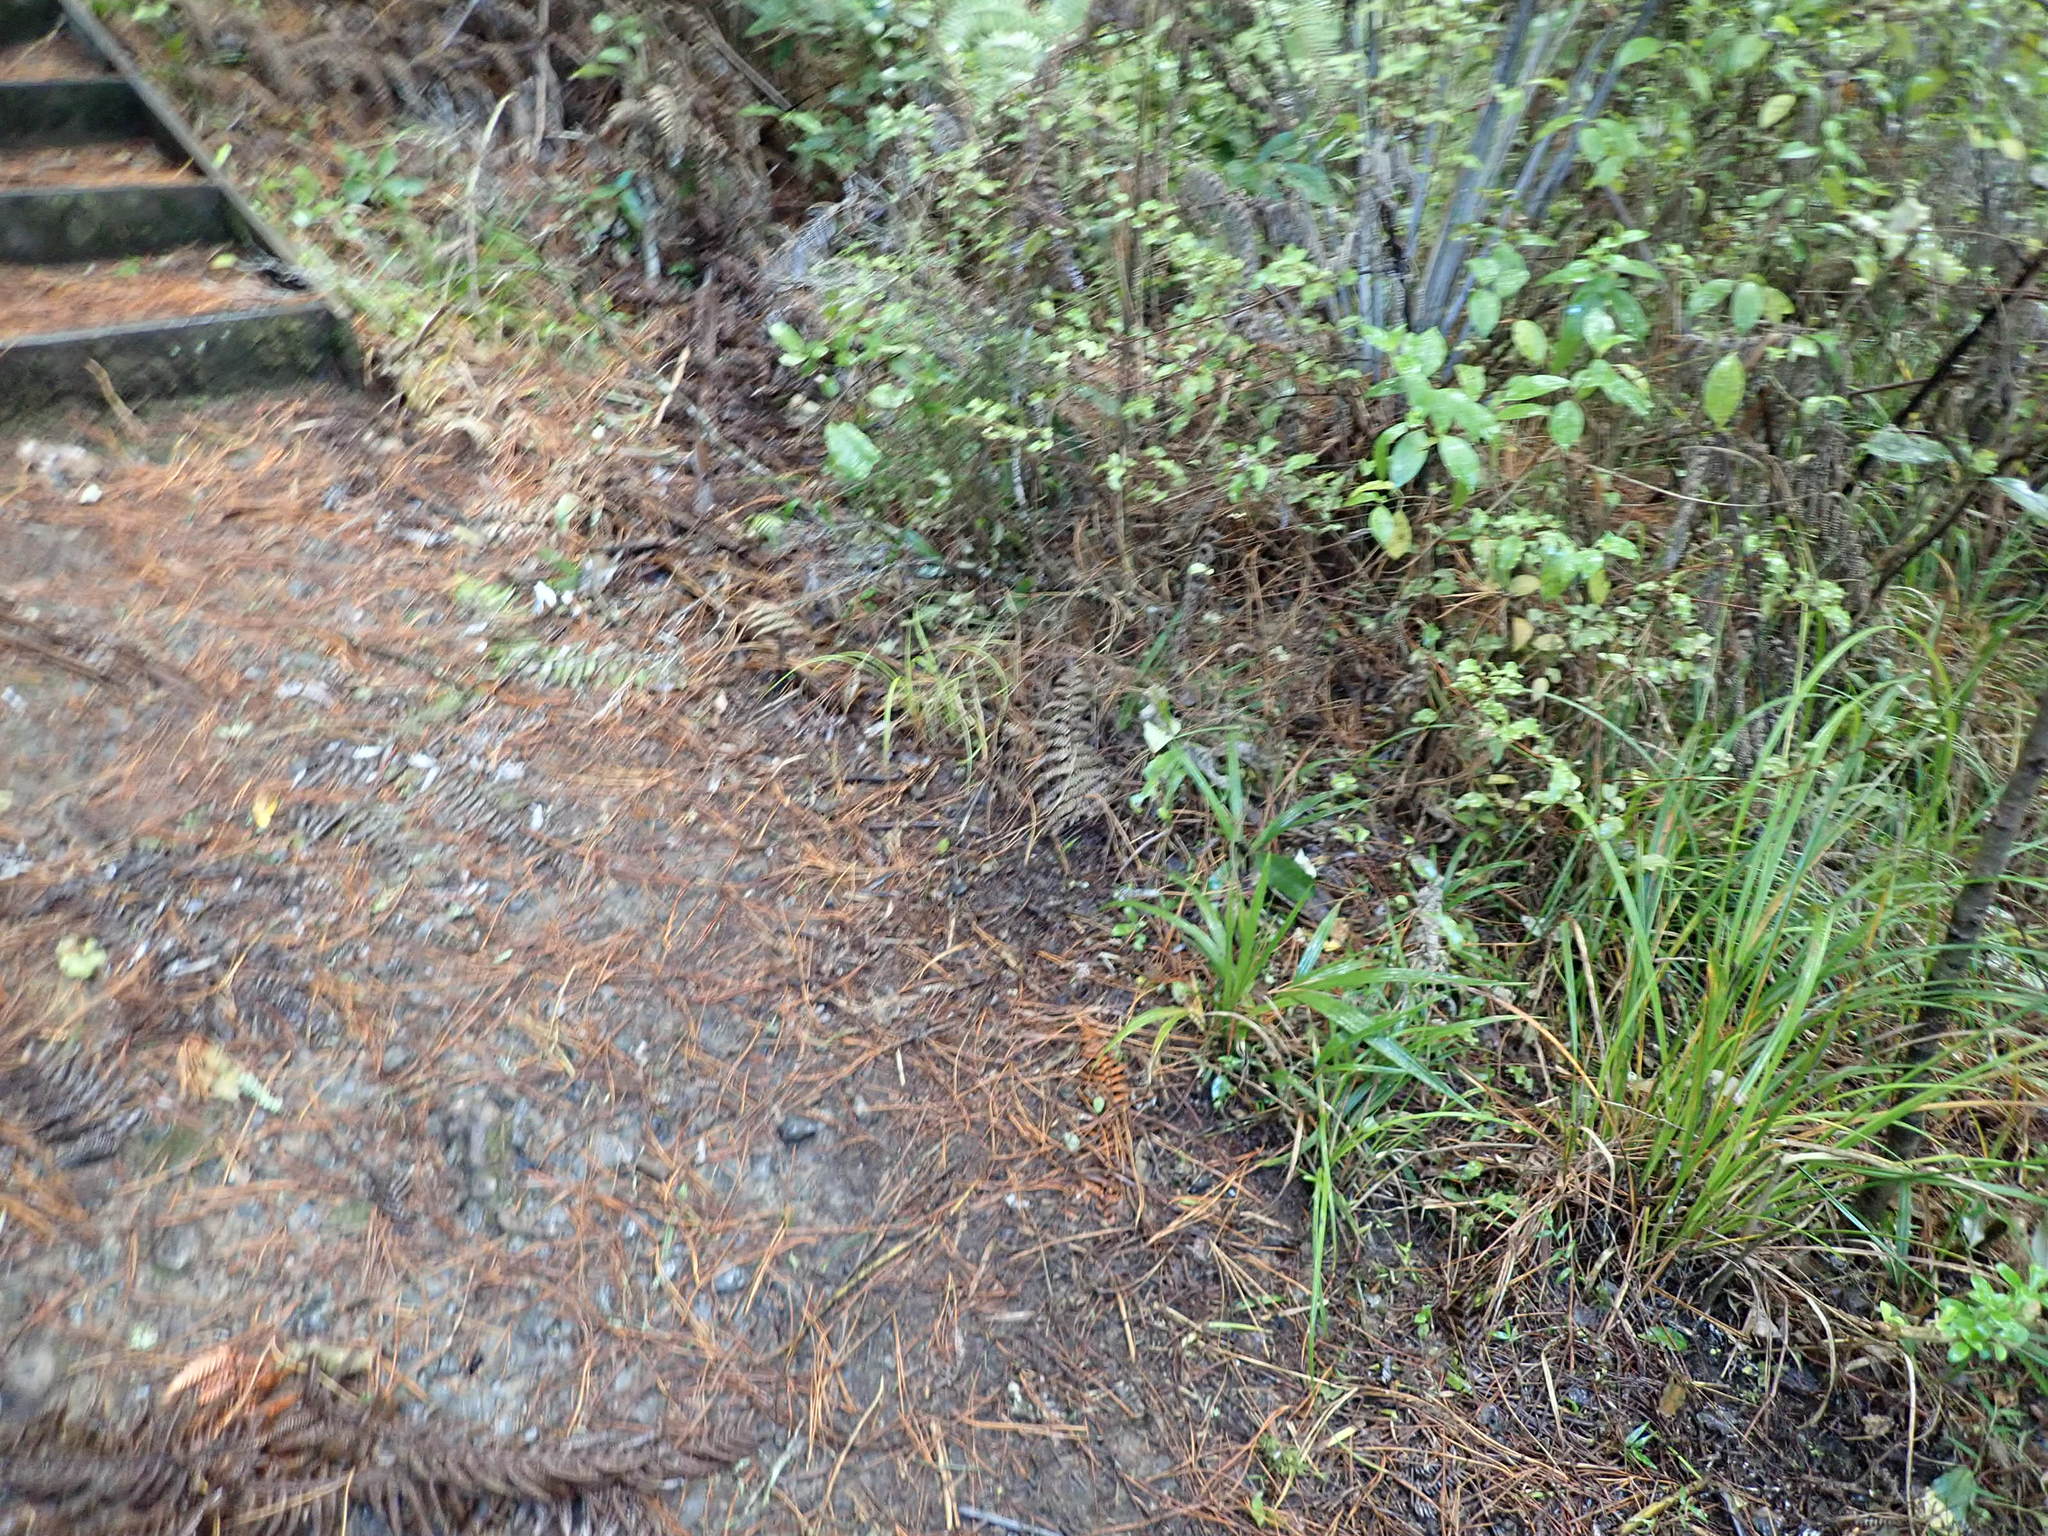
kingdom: Plantae
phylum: Tracheophyta
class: Magnoliopsida
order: Ericales
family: Primulaceae
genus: Myrsine
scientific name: Myrsine australis
